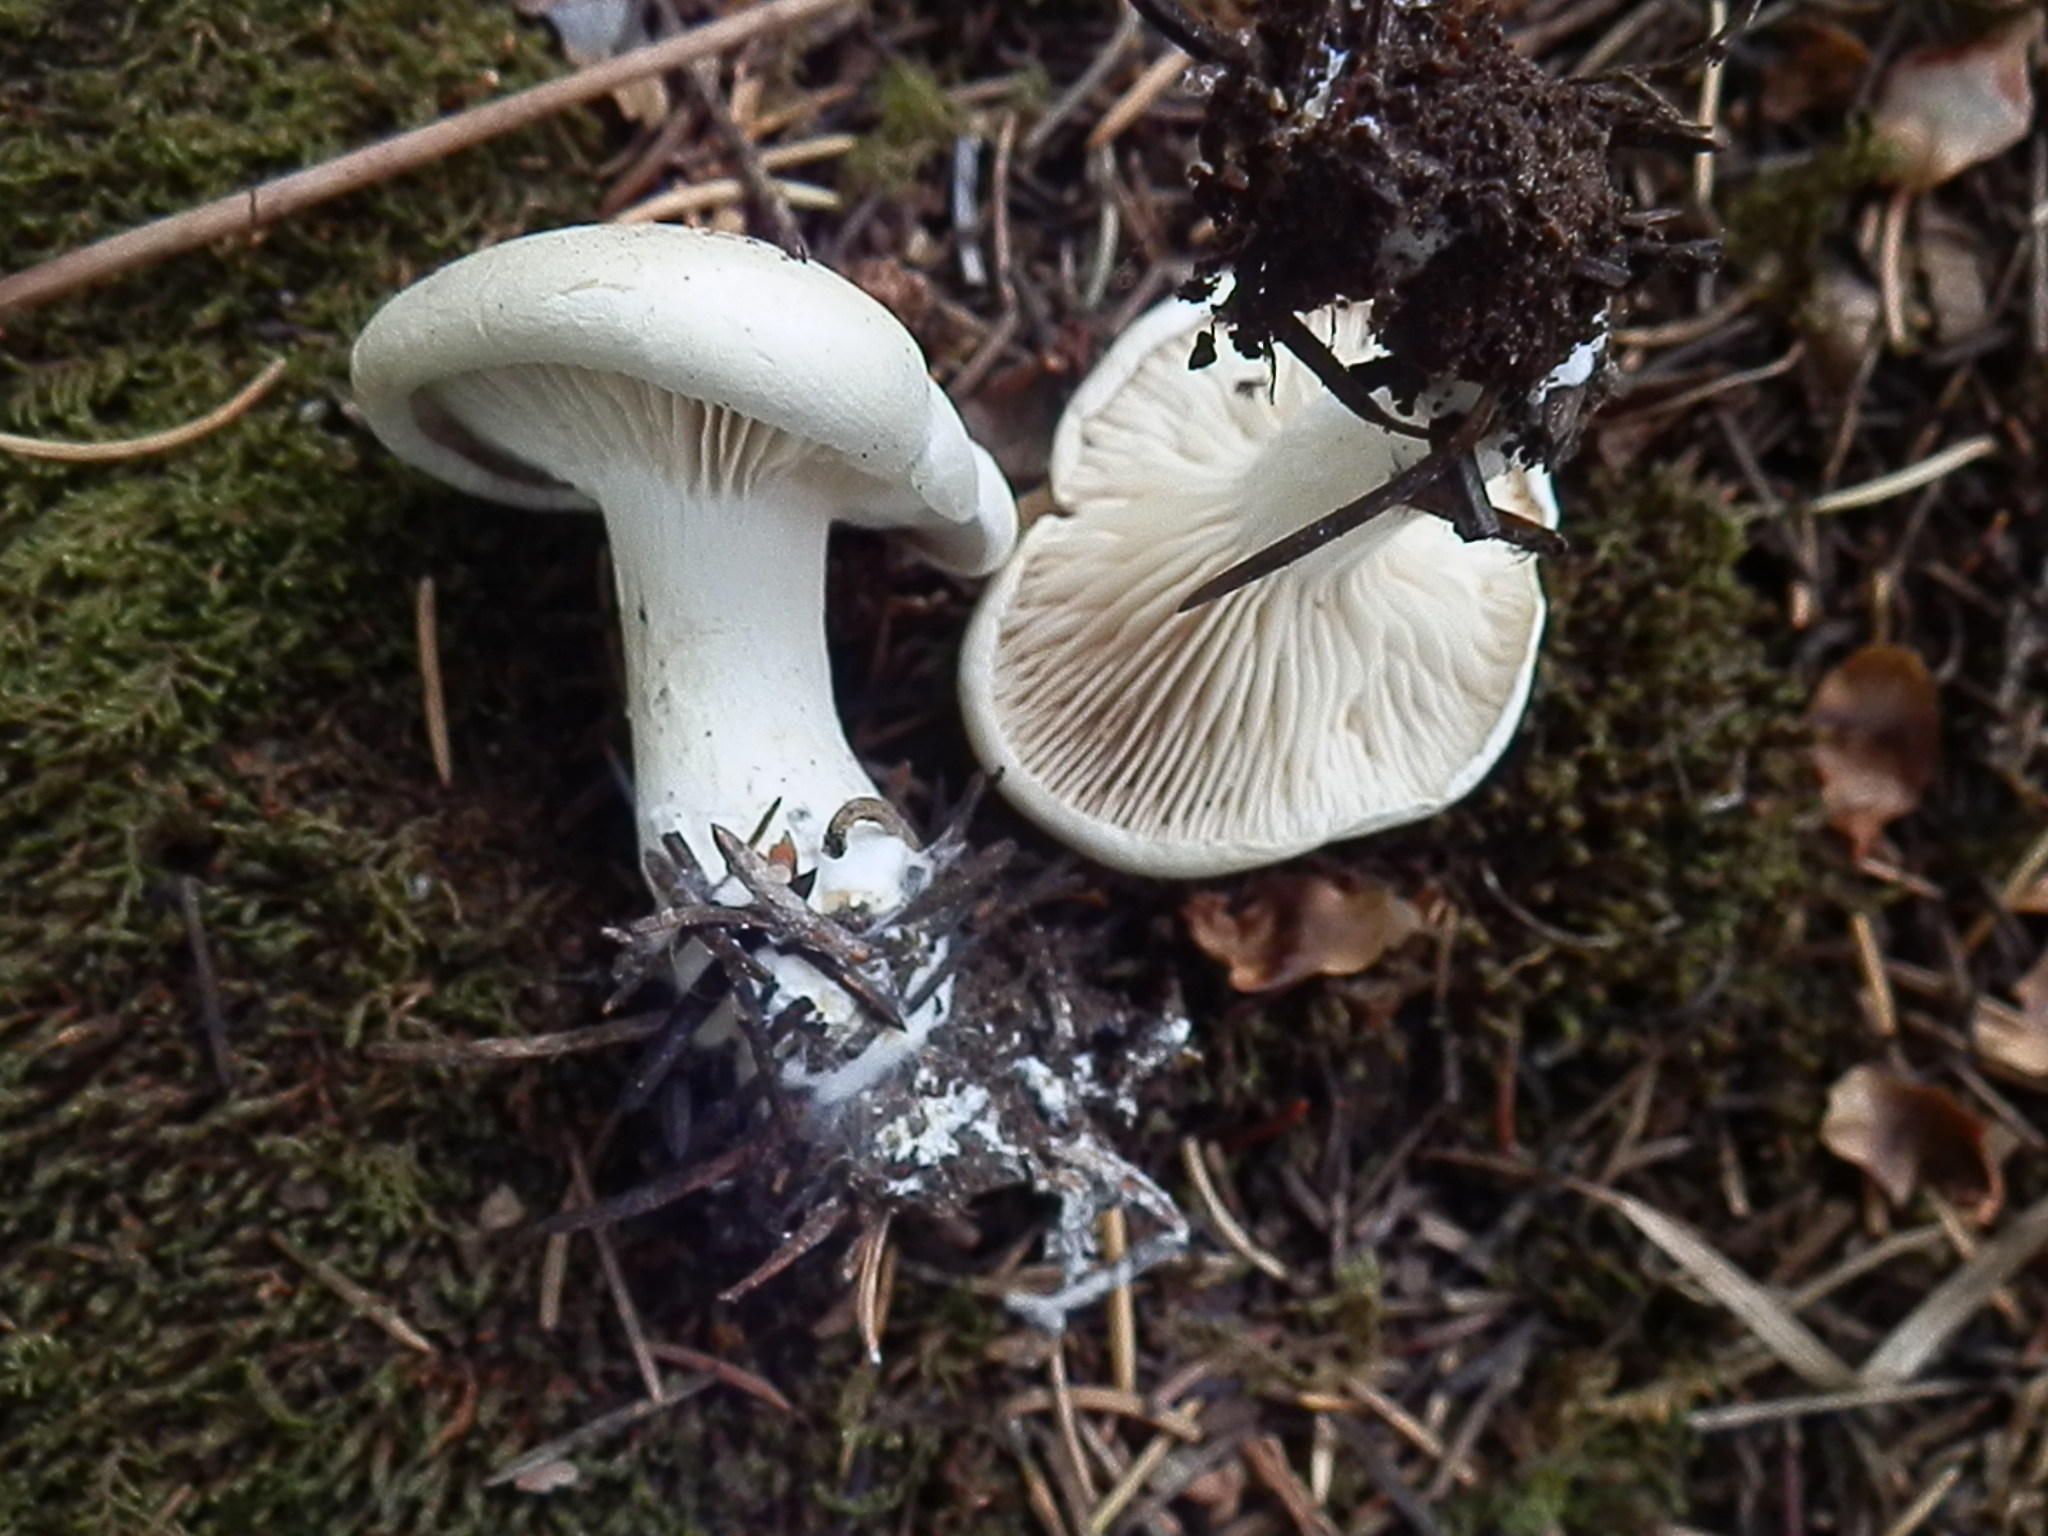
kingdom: Fungi
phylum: Basidiomycota
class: Agaricomycetes
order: Agaricales
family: Tricholomataceae
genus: Leucopaxillus
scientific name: Leucopaxillus albissimus
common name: Large white leucopax
